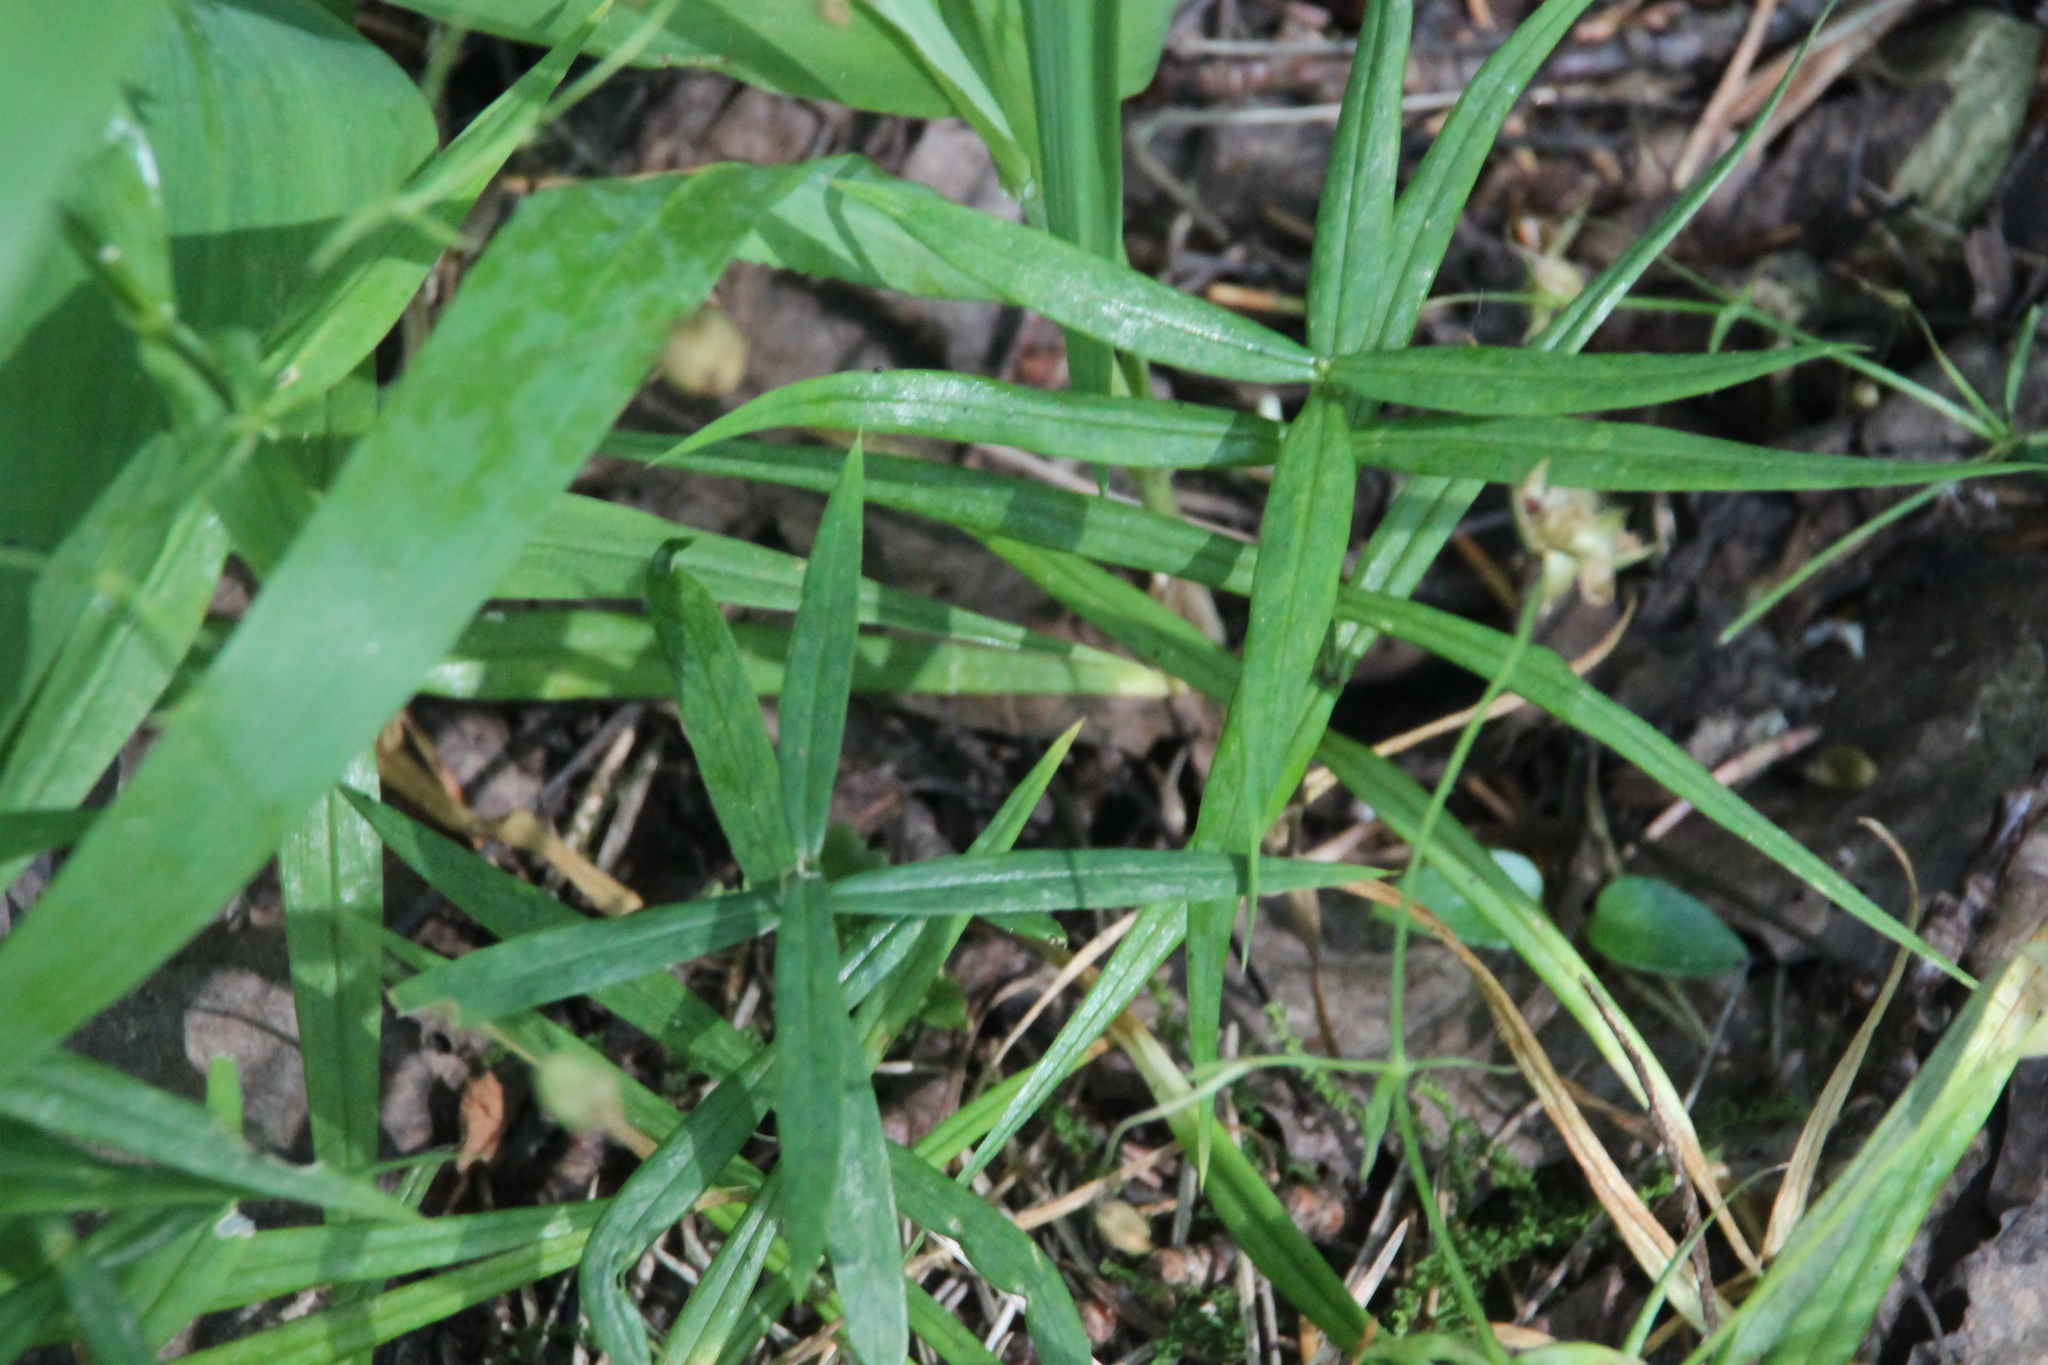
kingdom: Plantae
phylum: Tracheophyta
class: Magnoliopsida
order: Caryophyllales
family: Caryophyllaceae
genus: Rabelera
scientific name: Rabelera holostea
